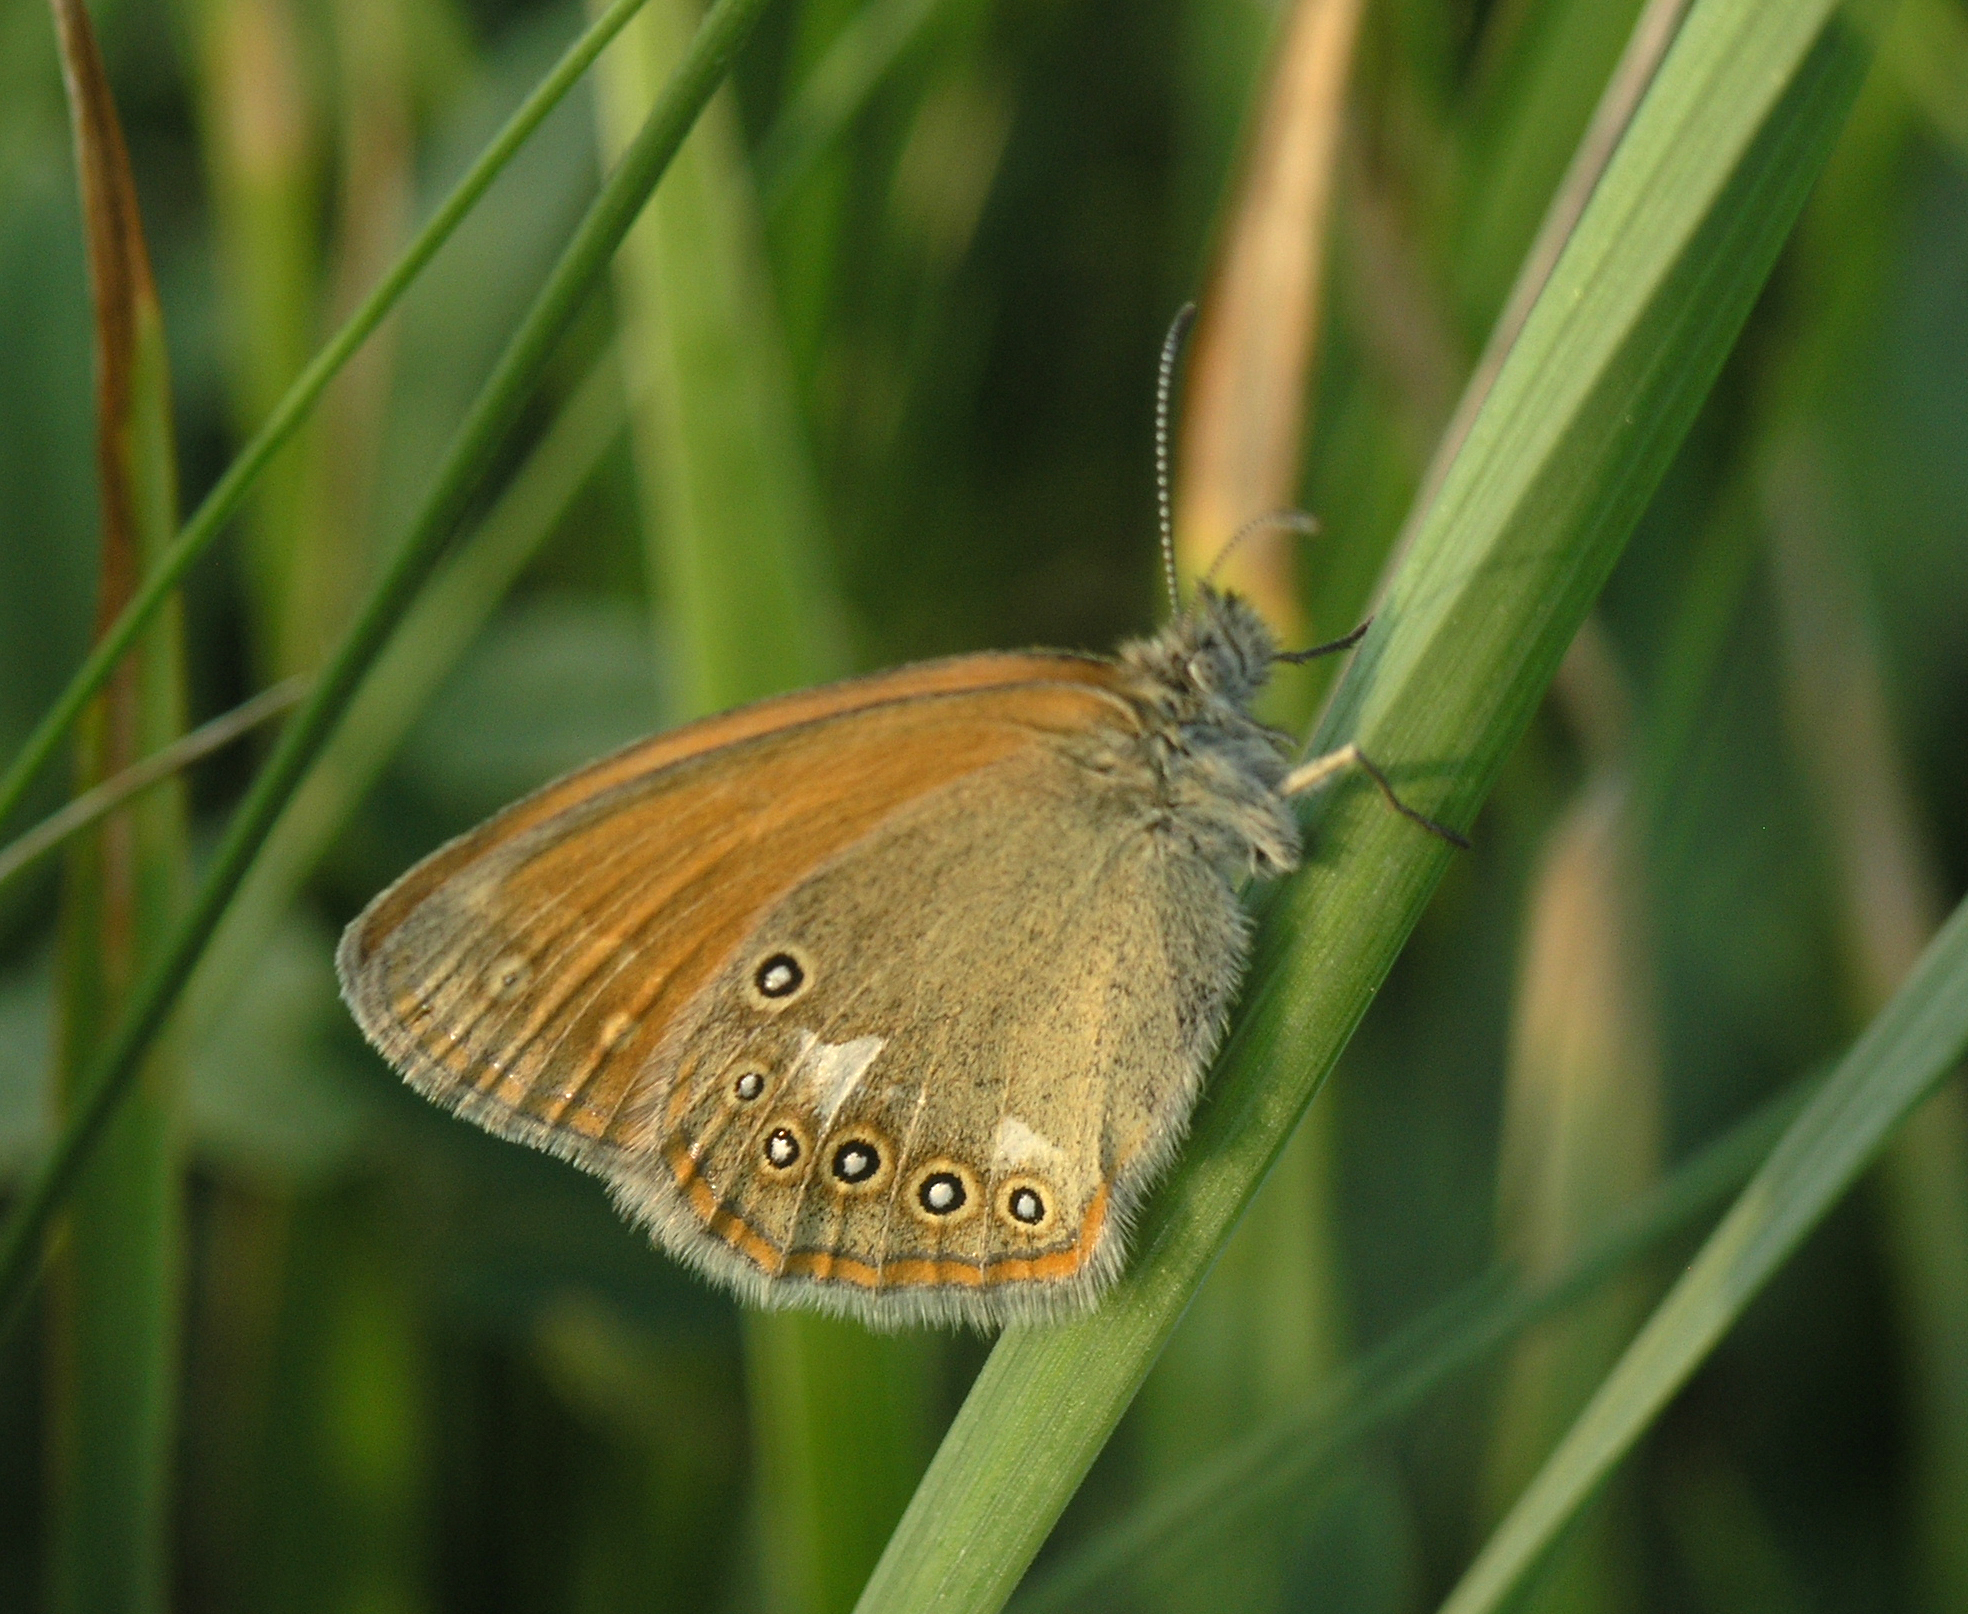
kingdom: Animalia
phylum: Arthropoda
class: Insecta
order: Lepidoptera
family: Nymphalidae
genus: Coenonympha
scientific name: Coenonympha iphis
